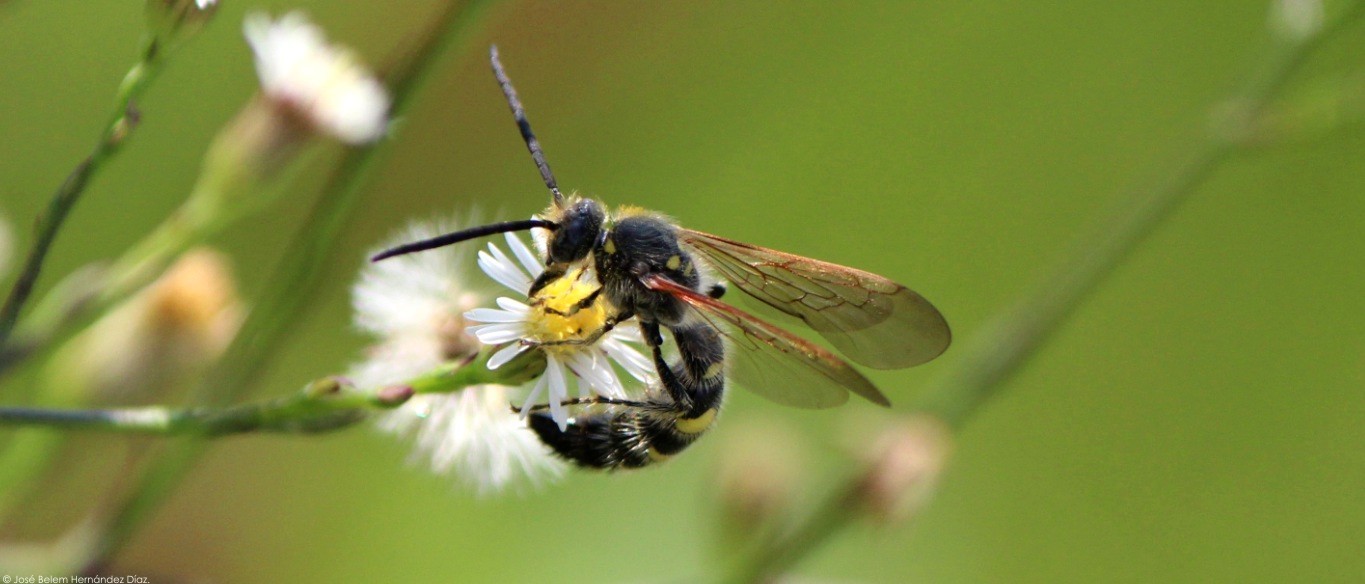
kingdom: Animalia
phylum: Arthropoda
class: Insecta
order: Hymenoptera
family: Scoliidae
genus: Xantocampsomeris
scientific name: Xantocampsomeris limosa
